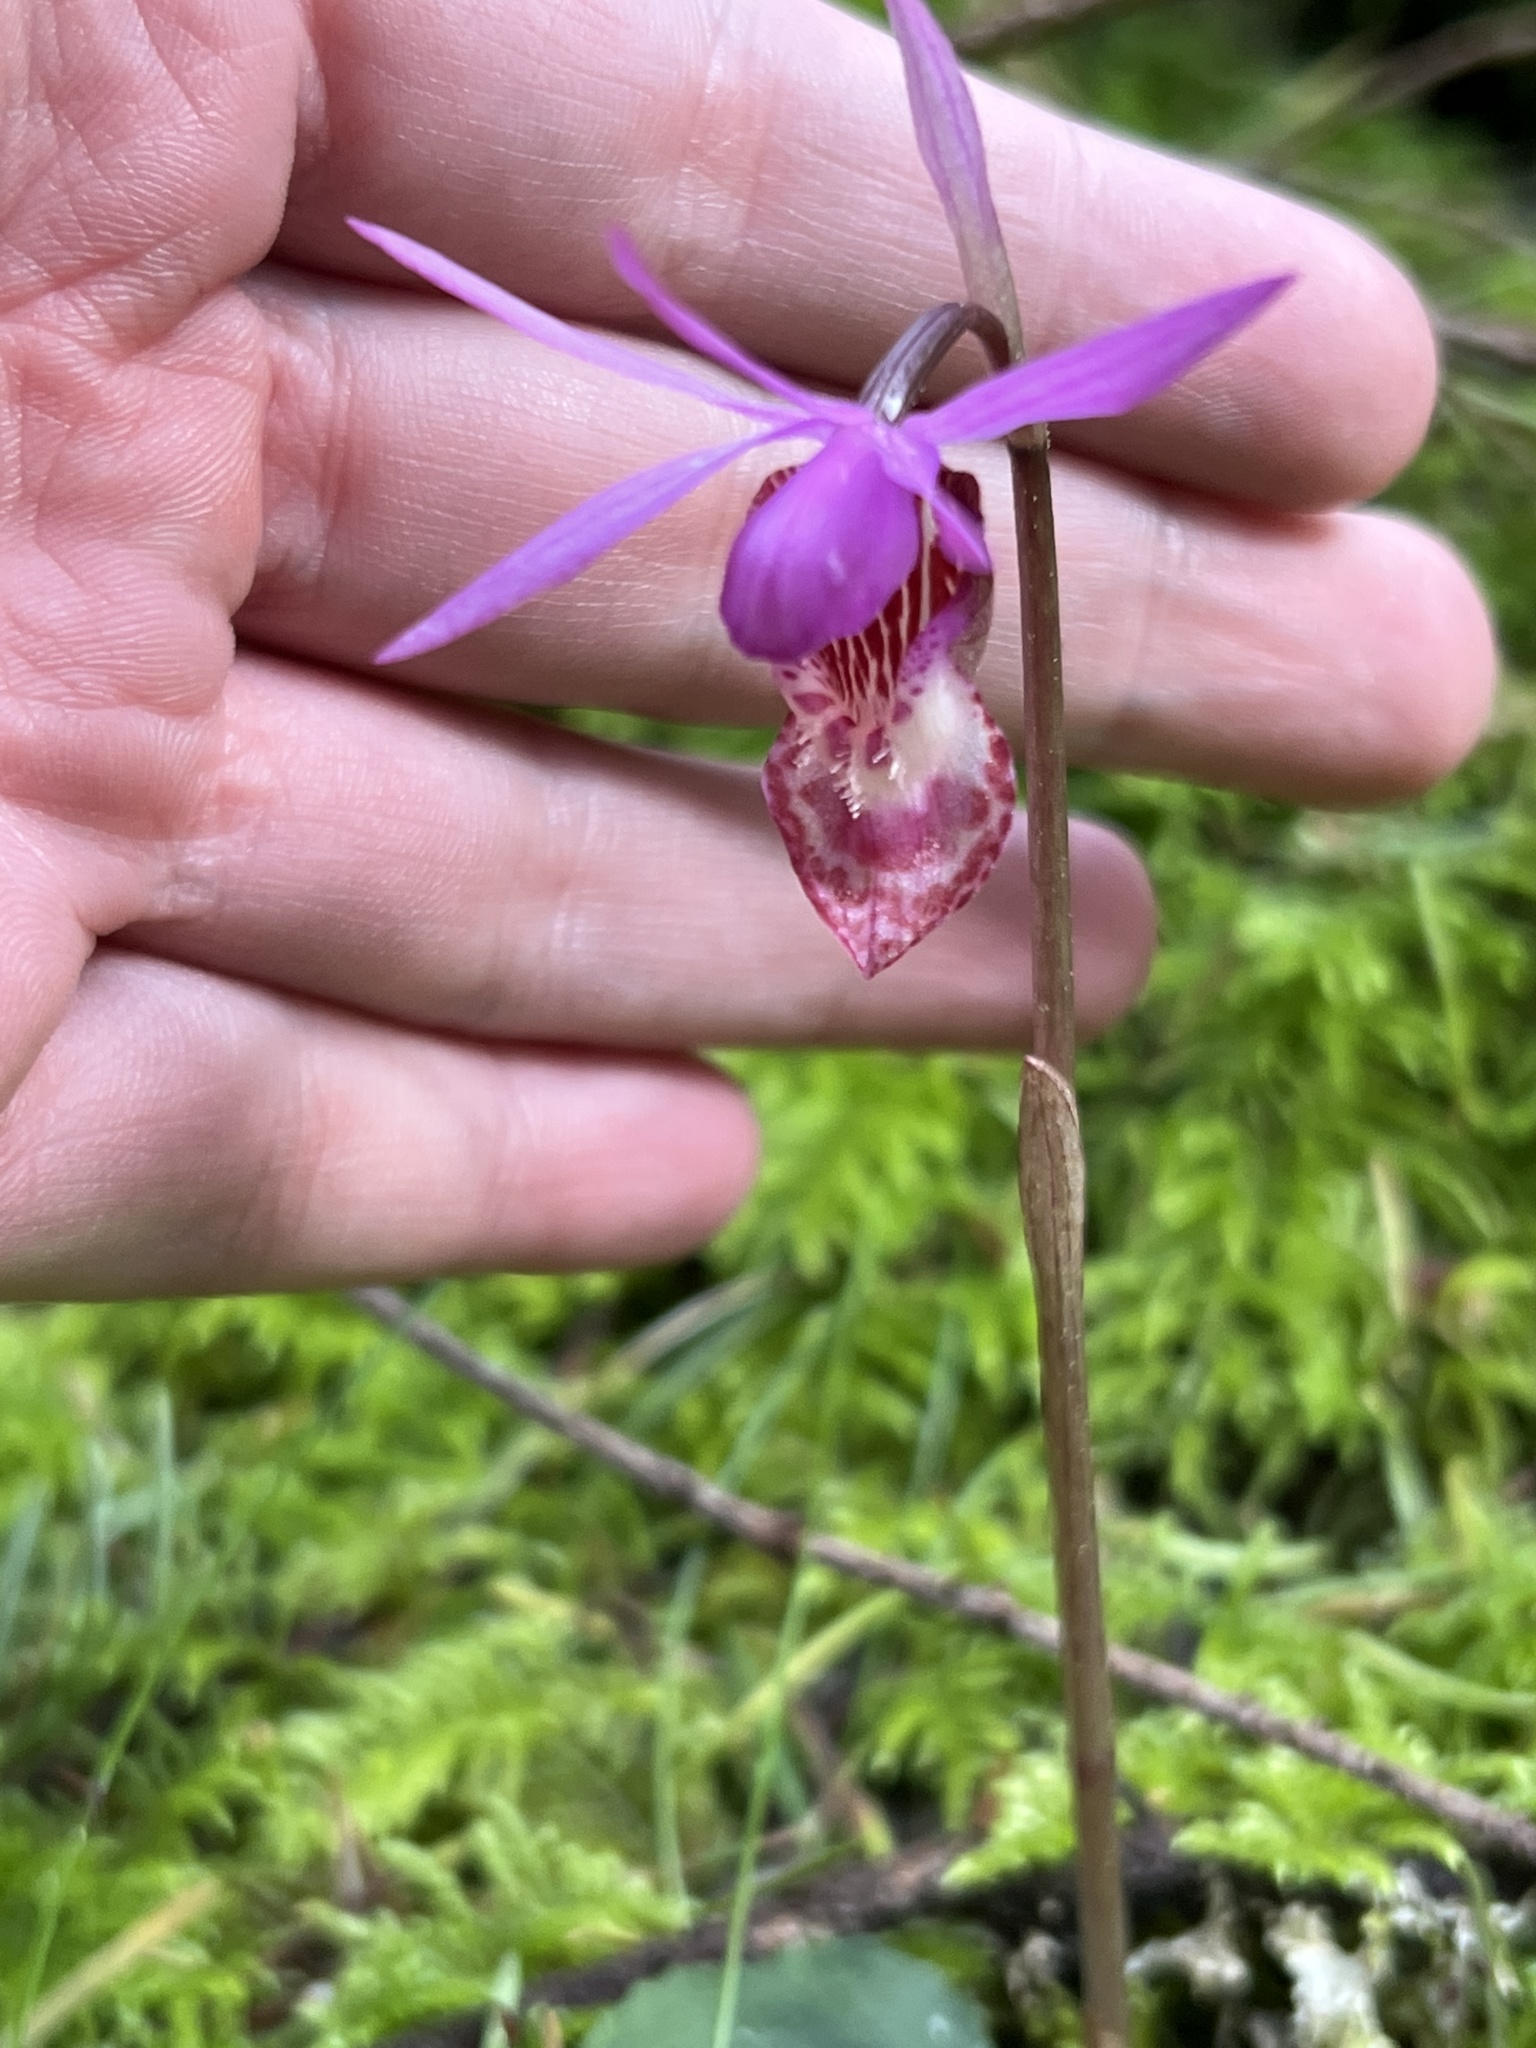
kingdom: Plantae
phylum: Tracheophyta
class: Liliopsida
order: Asparagales
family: Orchidaceae
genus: Calypso
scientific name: Calypso bulbosa
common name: Calypso
